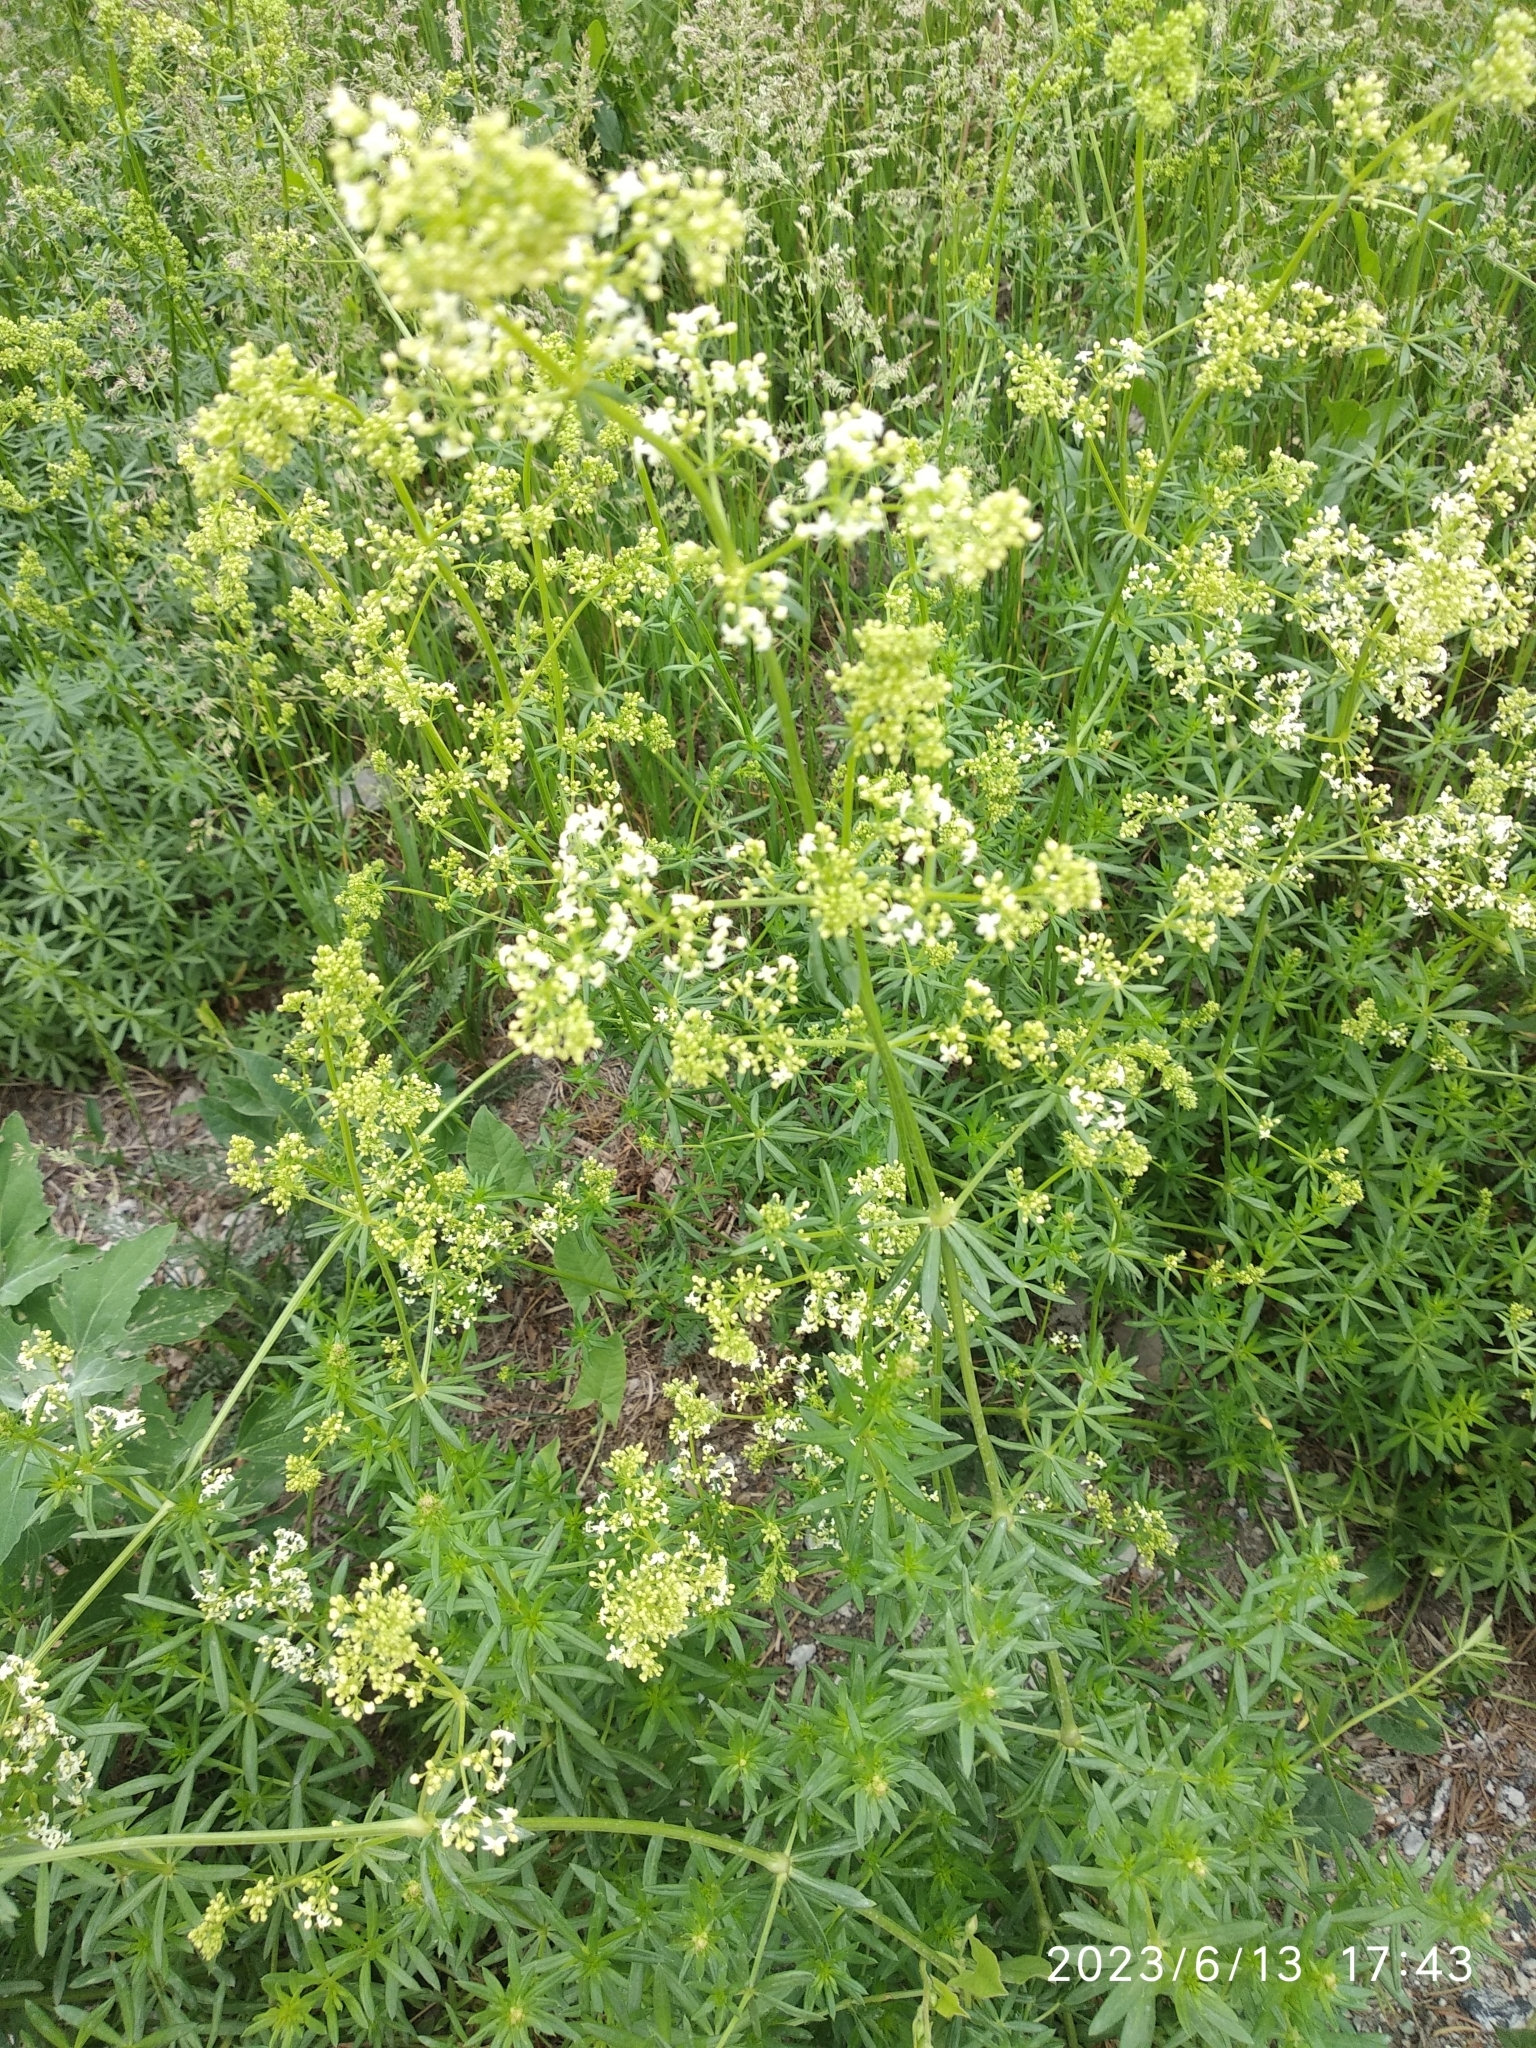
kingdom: Plantae
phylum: Tracheophyta
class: Magnoliopsida
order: Gentianales
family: Rubiaceae
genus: Galium
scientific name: Galium mollugo
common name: Hedge bedstraw
